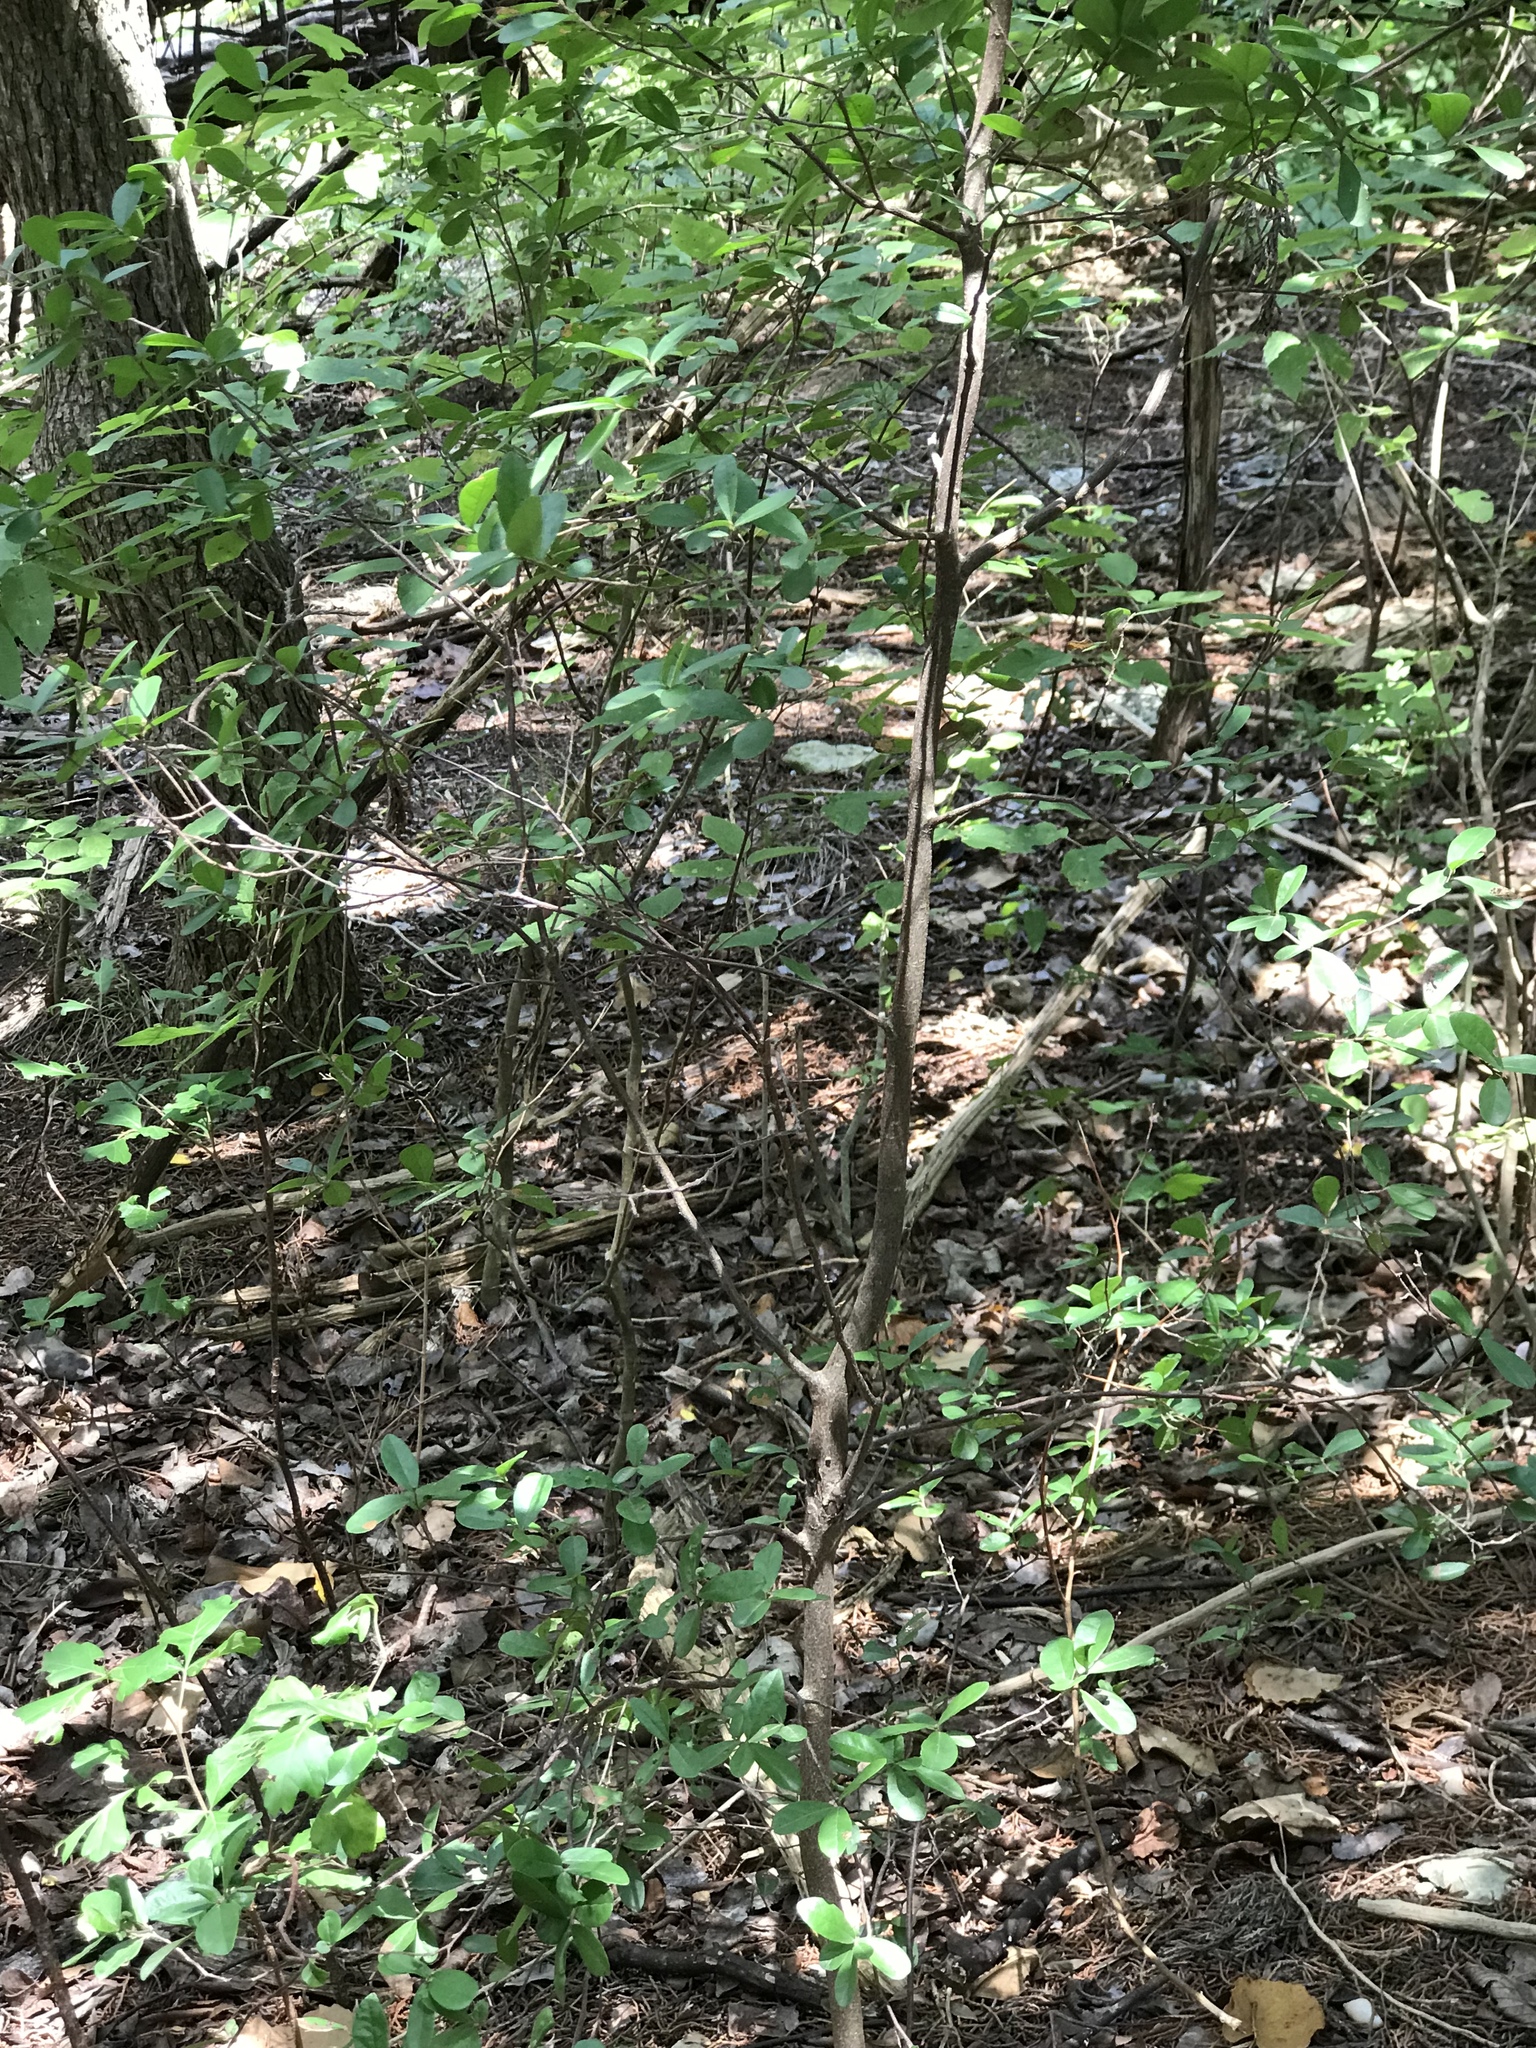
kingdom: Plantae
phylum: Tracheophyta
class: Magnoliopsida
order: Ericales
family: Ebenaceae
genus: Diospyros
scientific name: Diospyros texana
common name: Texas persimmon
